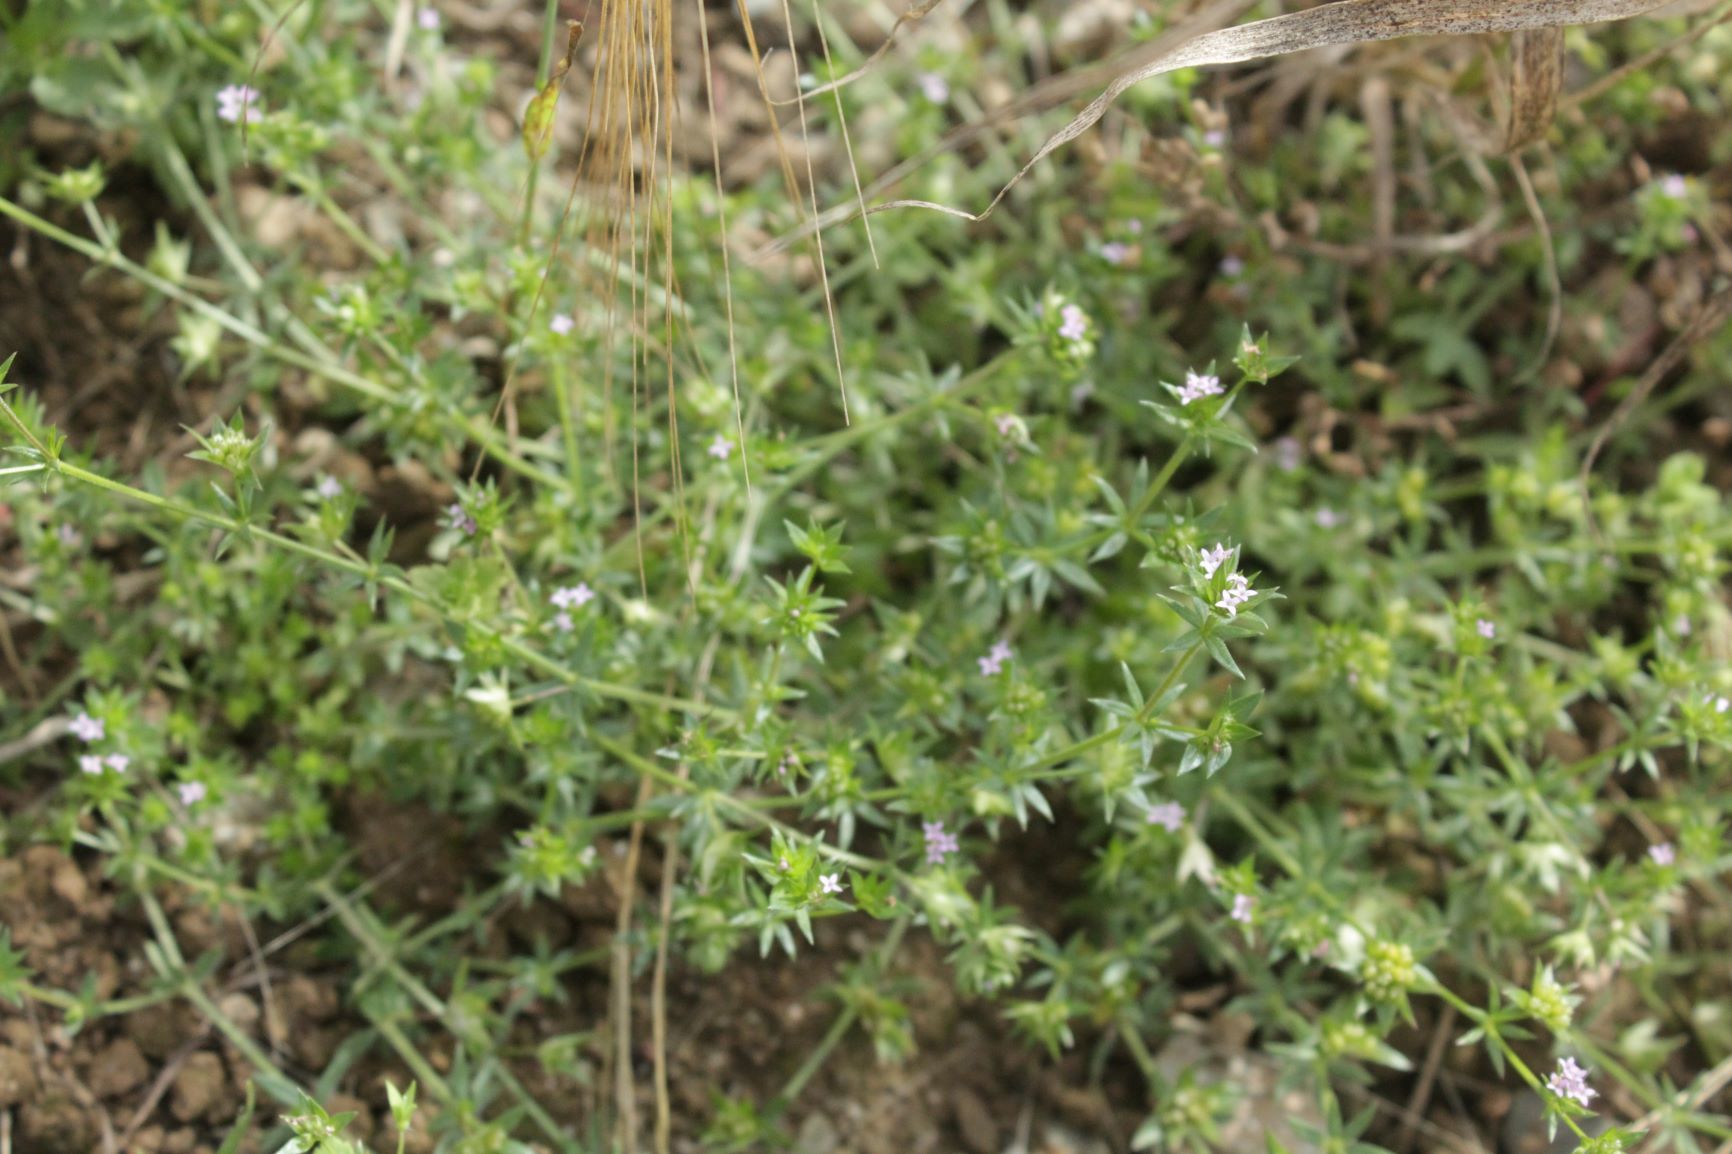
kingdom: Plantae
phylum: Tracheophyta
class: Magnoliopsida
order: Gentianales
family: Rubiaceae
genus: Sherardia
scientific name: Sherardia arvensis
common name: Field madder
